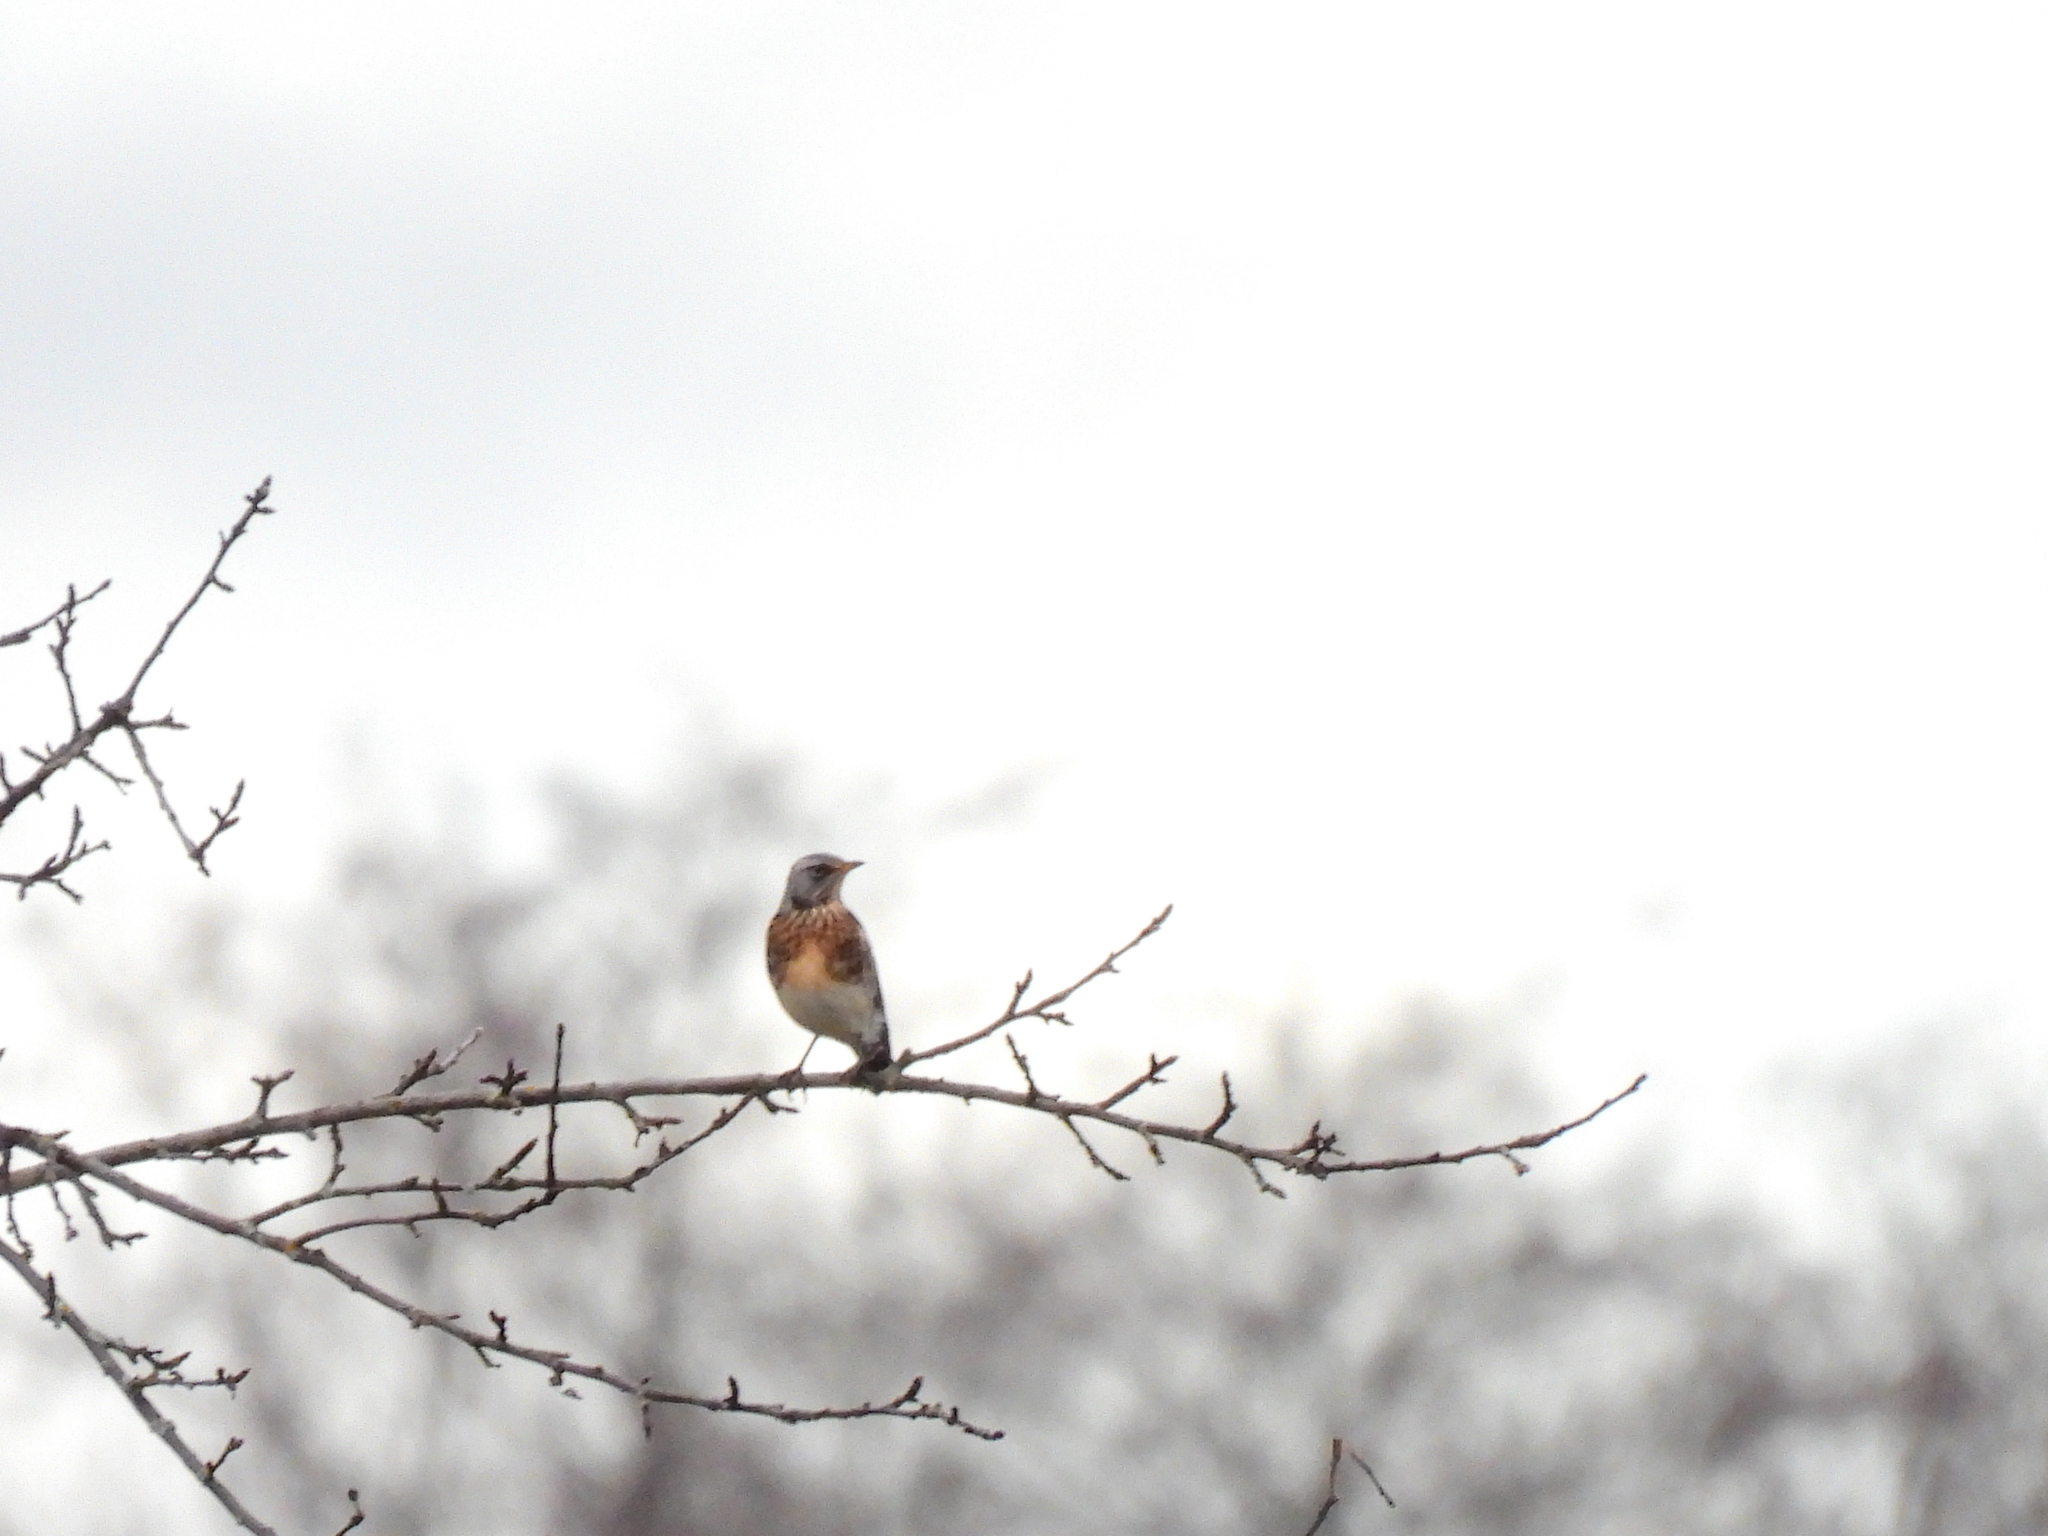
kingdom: Animalia
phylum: Chordata
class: Aves
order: Passeriformes
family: Turdidae
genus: Turdus
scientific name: Turdus pilaris
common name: Fieldfare
